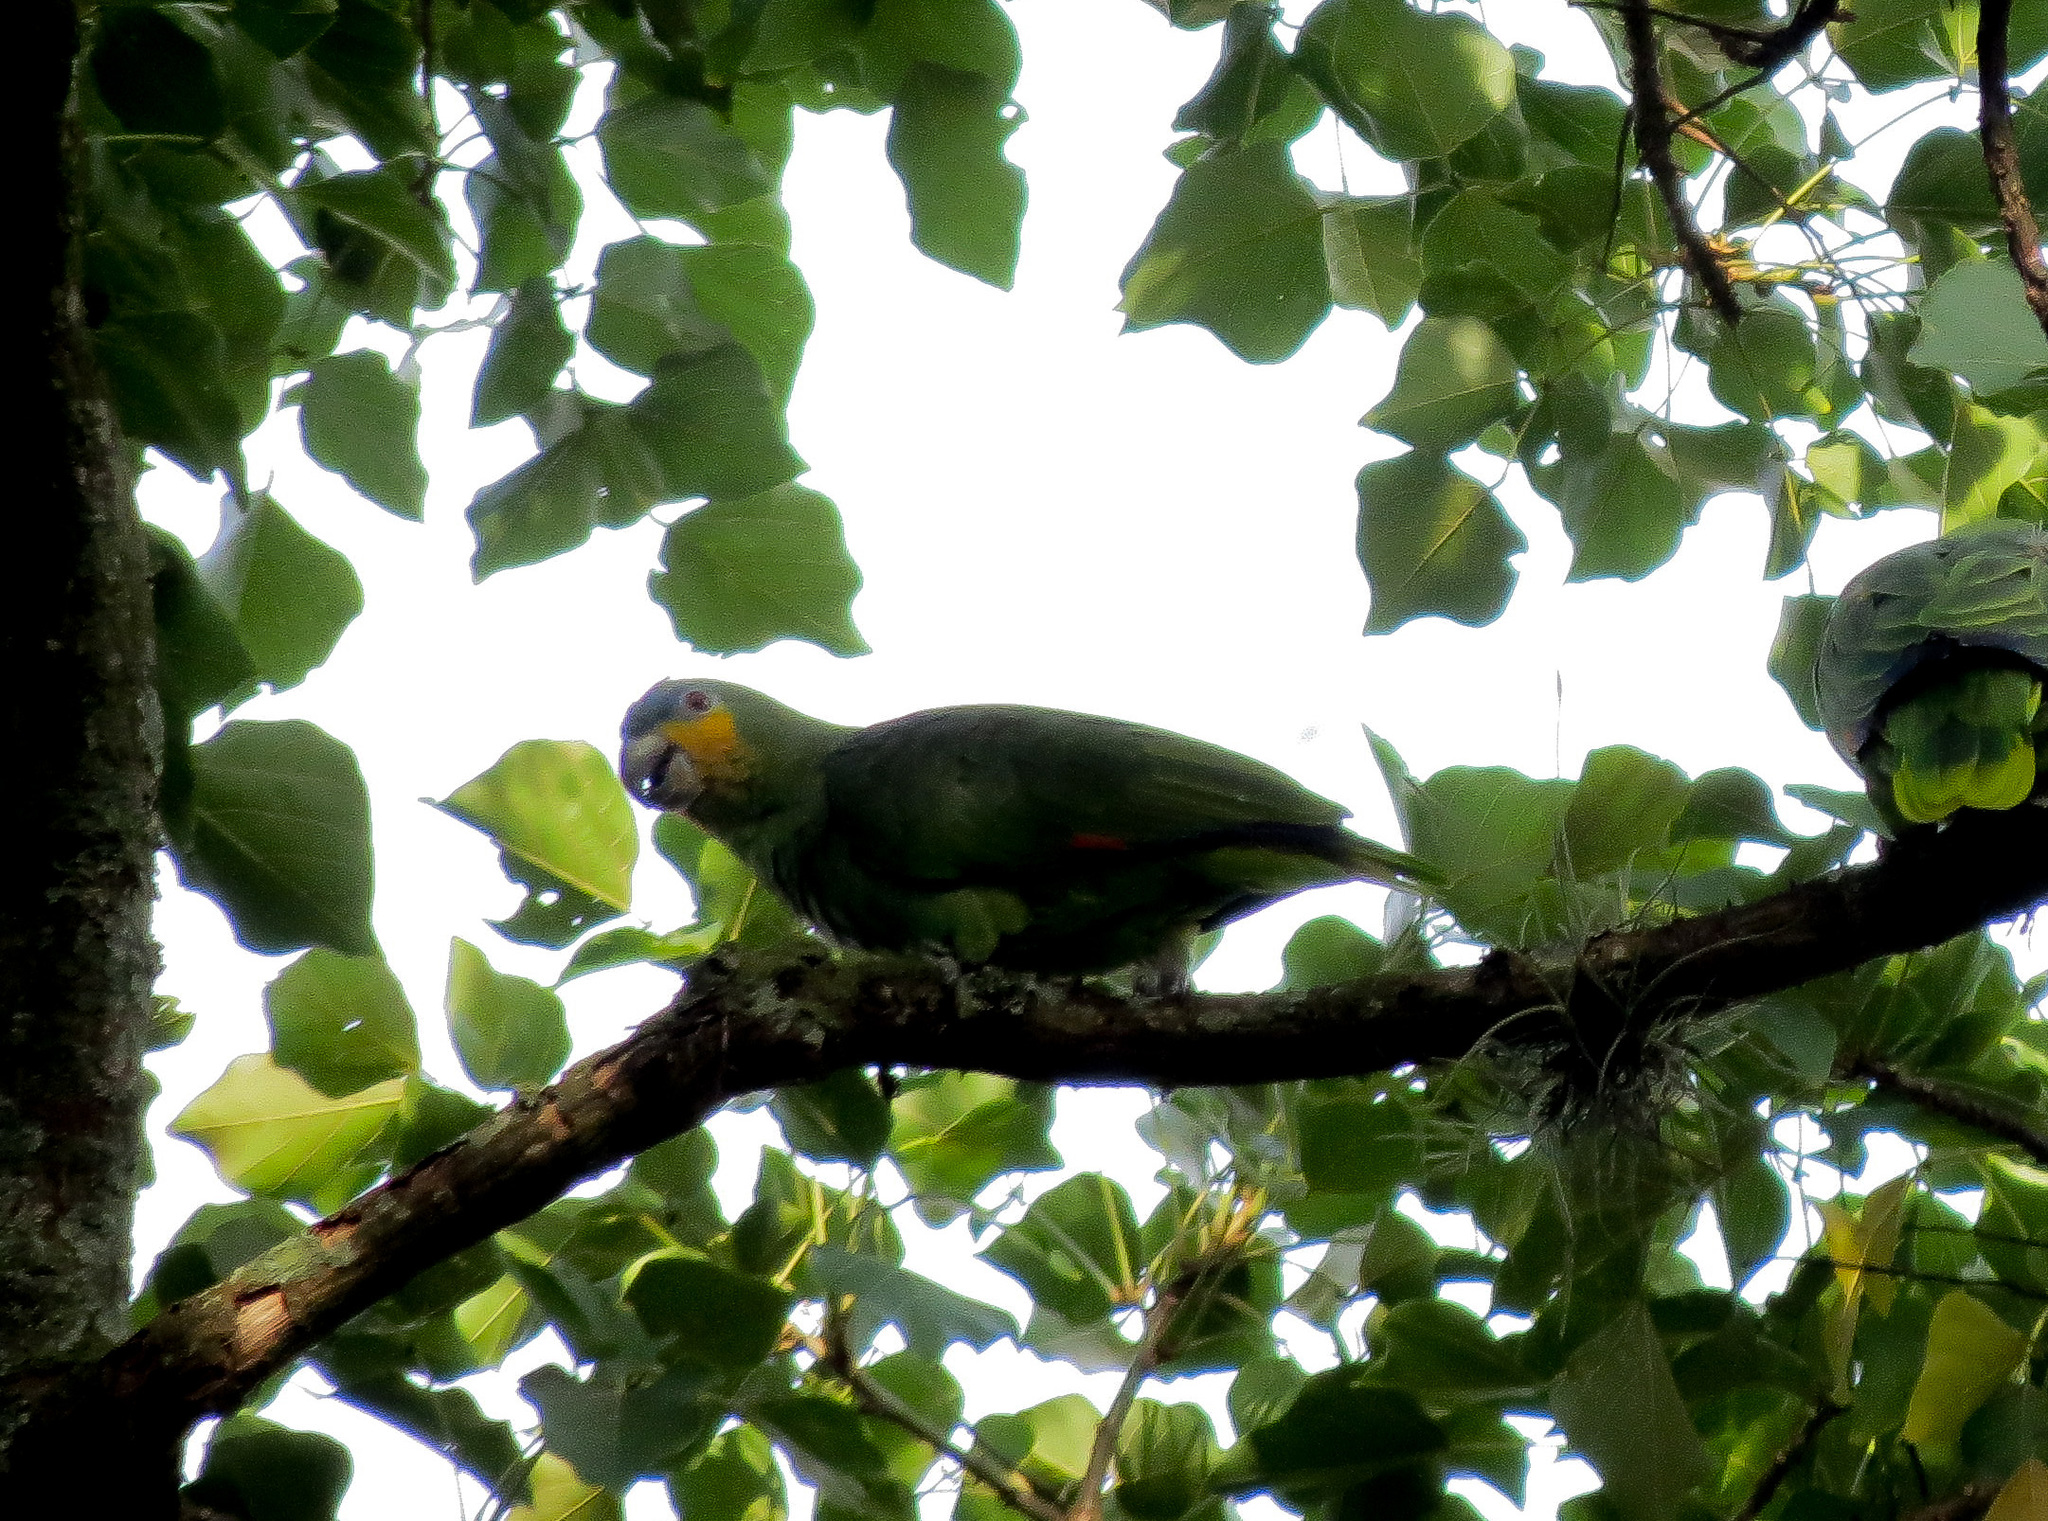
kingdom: Animalia
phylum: Chordata
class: Aves
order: Psittaciformes
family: Psittacidae
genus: Amazona
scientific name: Amazona amazonica
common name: Orange-winged amazon
